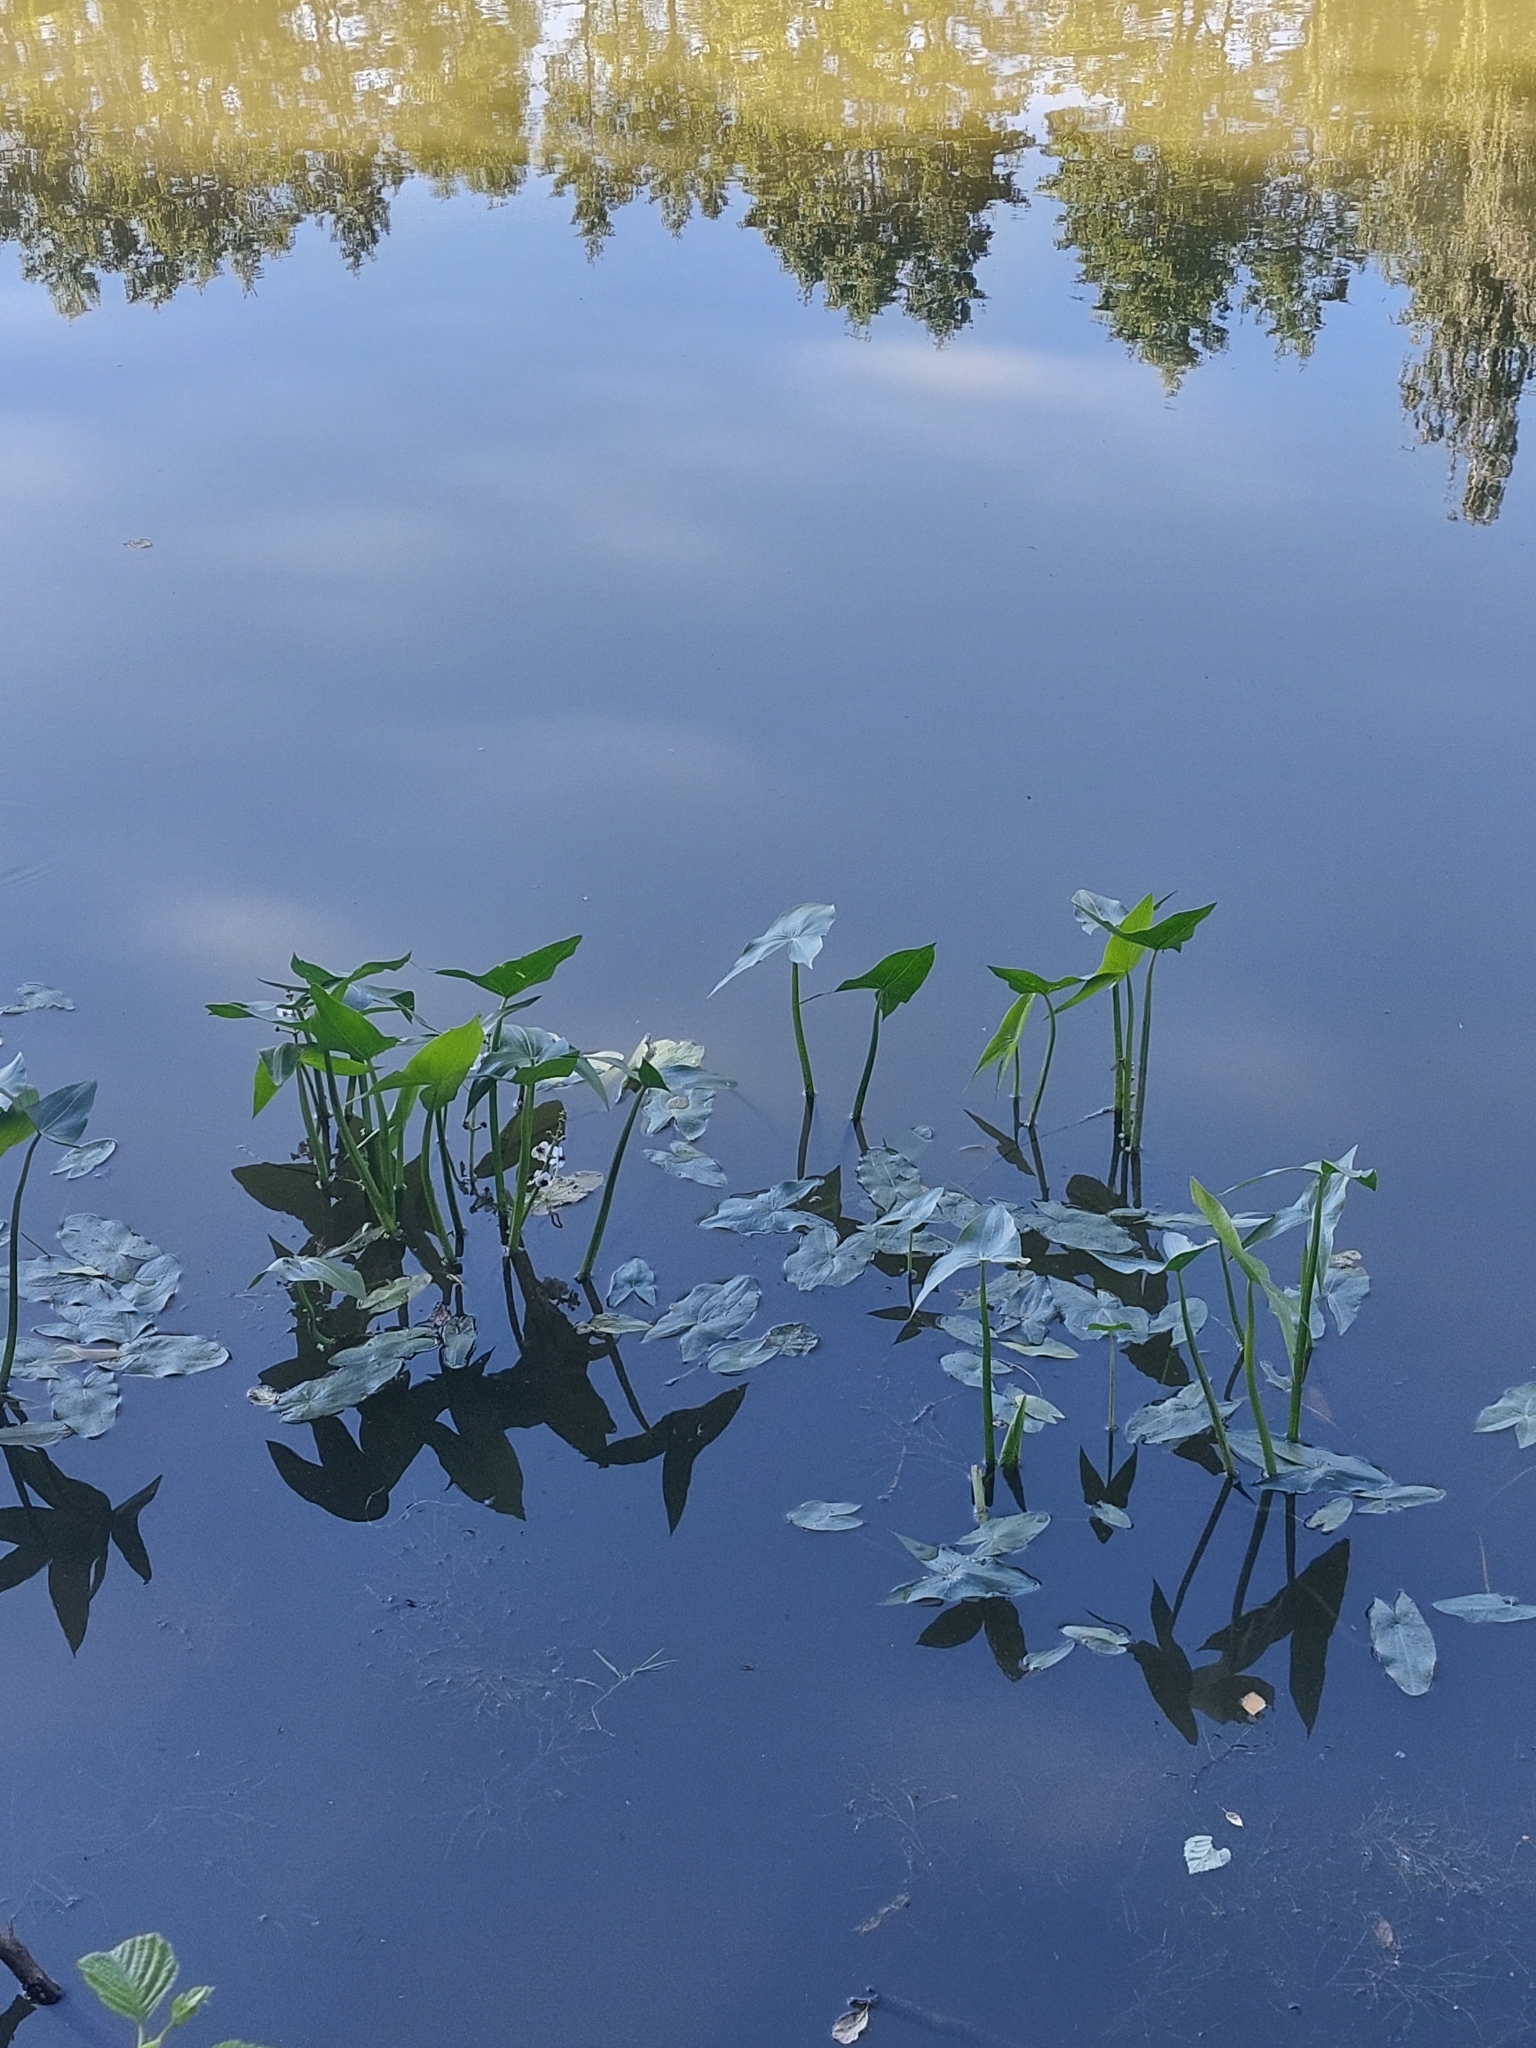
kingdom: Plantae
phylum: Tracheophyta
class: Liliopsida
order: Alismatales
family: Alismataceae
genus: Sagittaria
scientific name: Sagittaria sagittifolia
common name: Arrowhead
